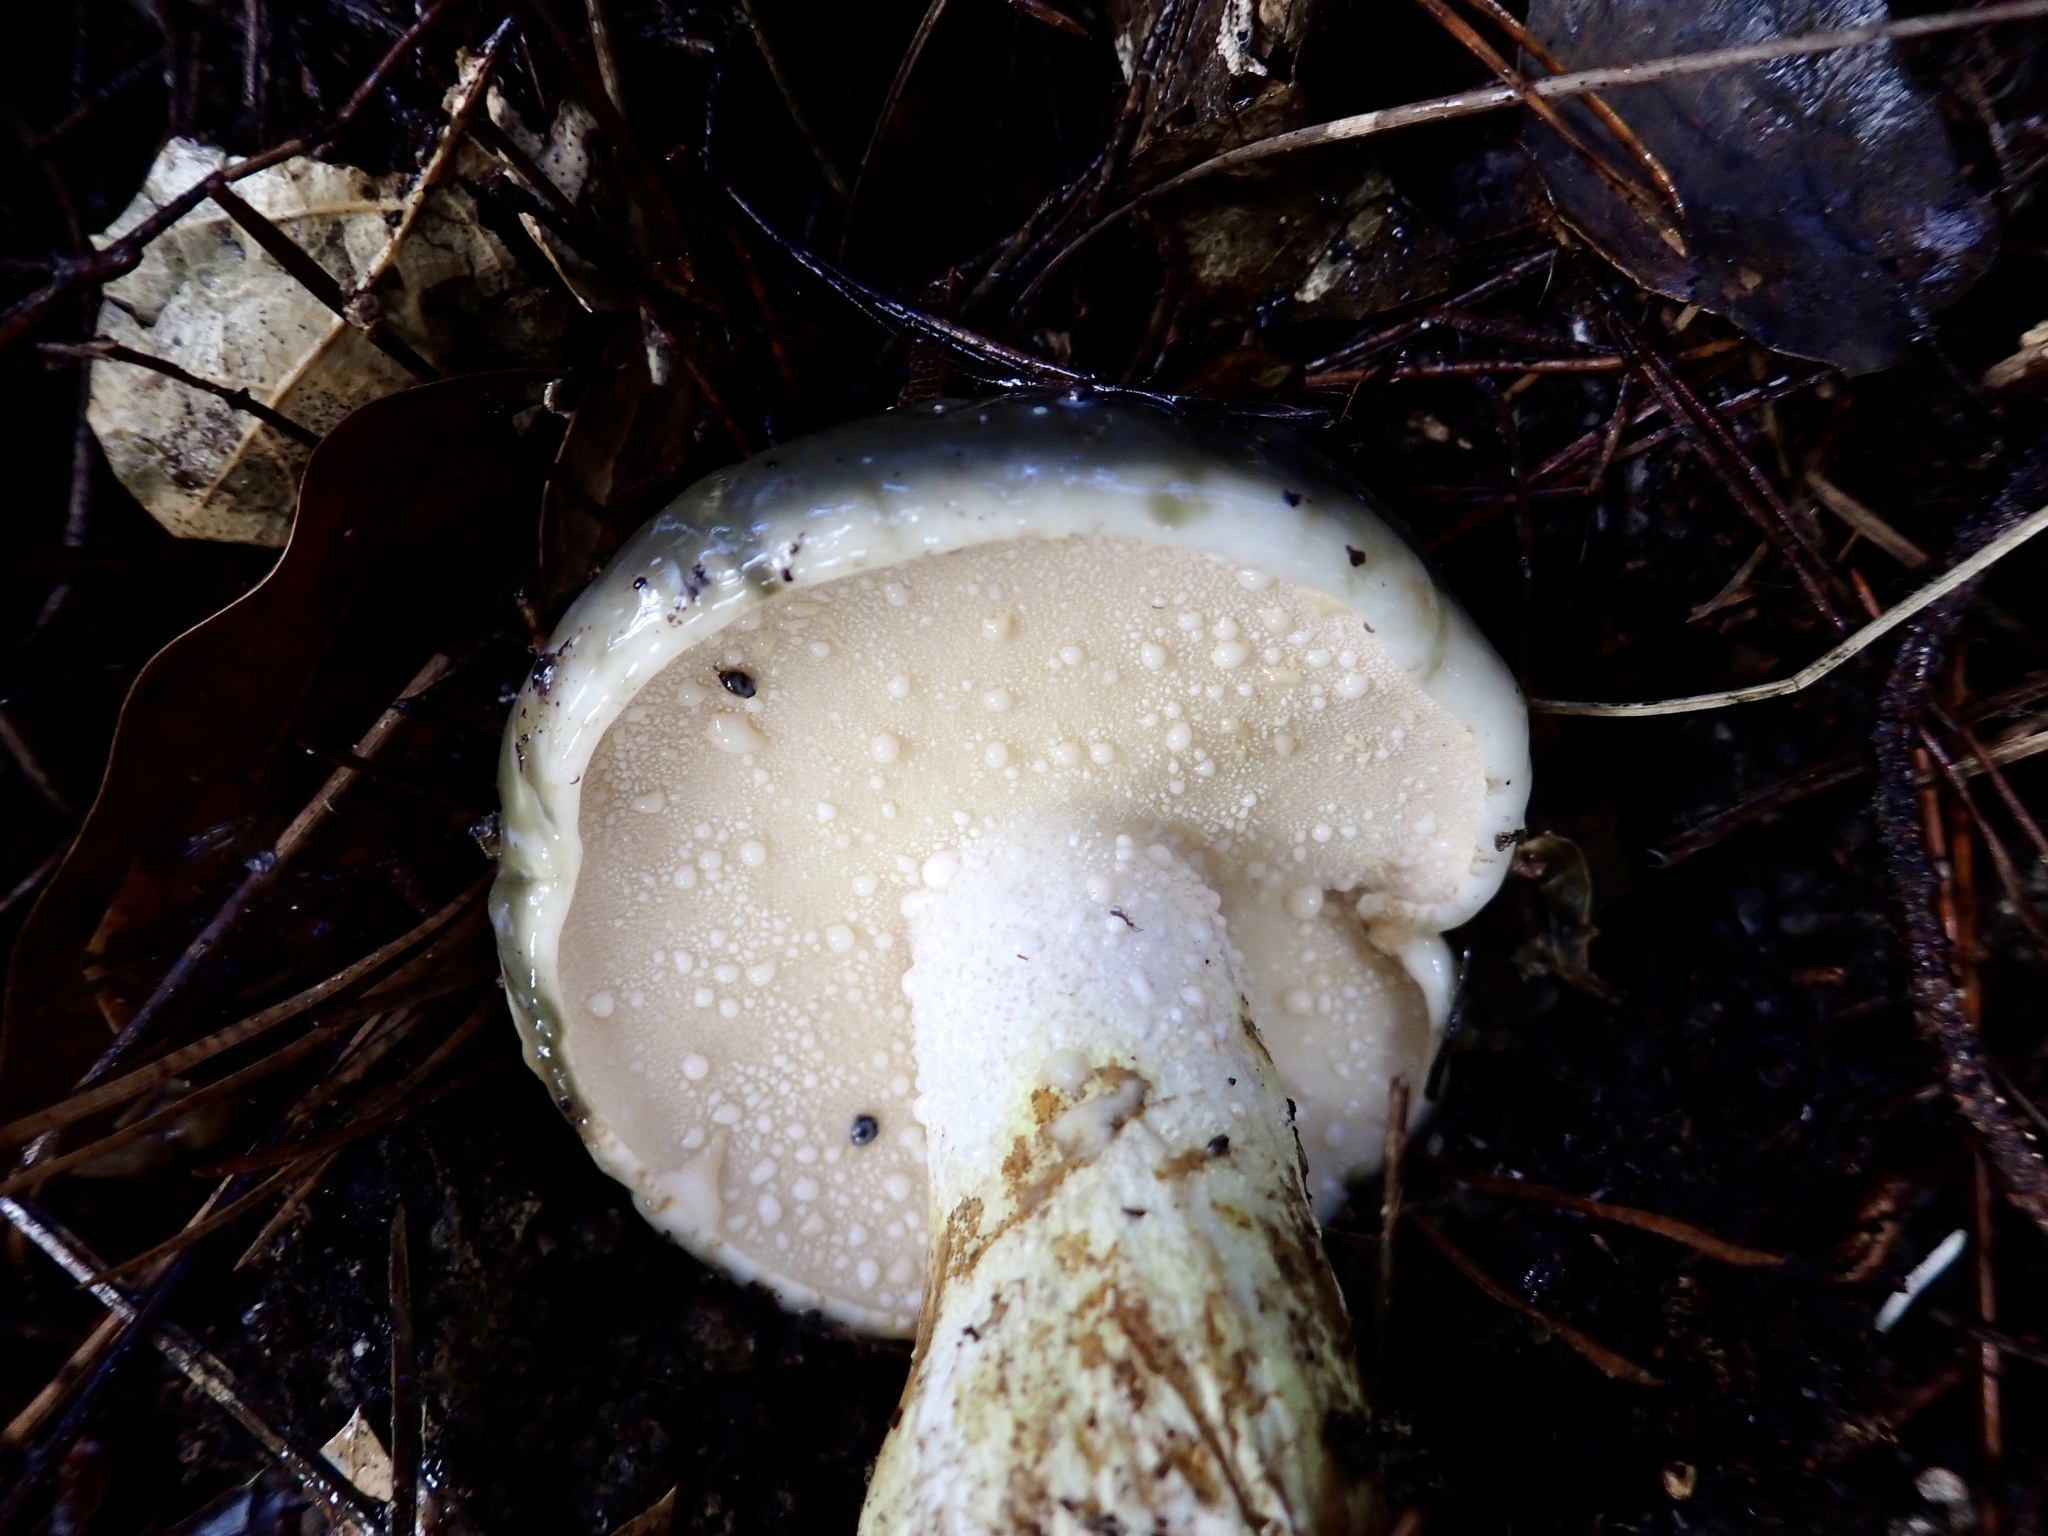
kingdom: Fungi
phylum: Basidiomycota
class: Agaricomycetes
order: Boletales
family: Suillaceae
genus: Suillus
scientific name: Suillus pungens
